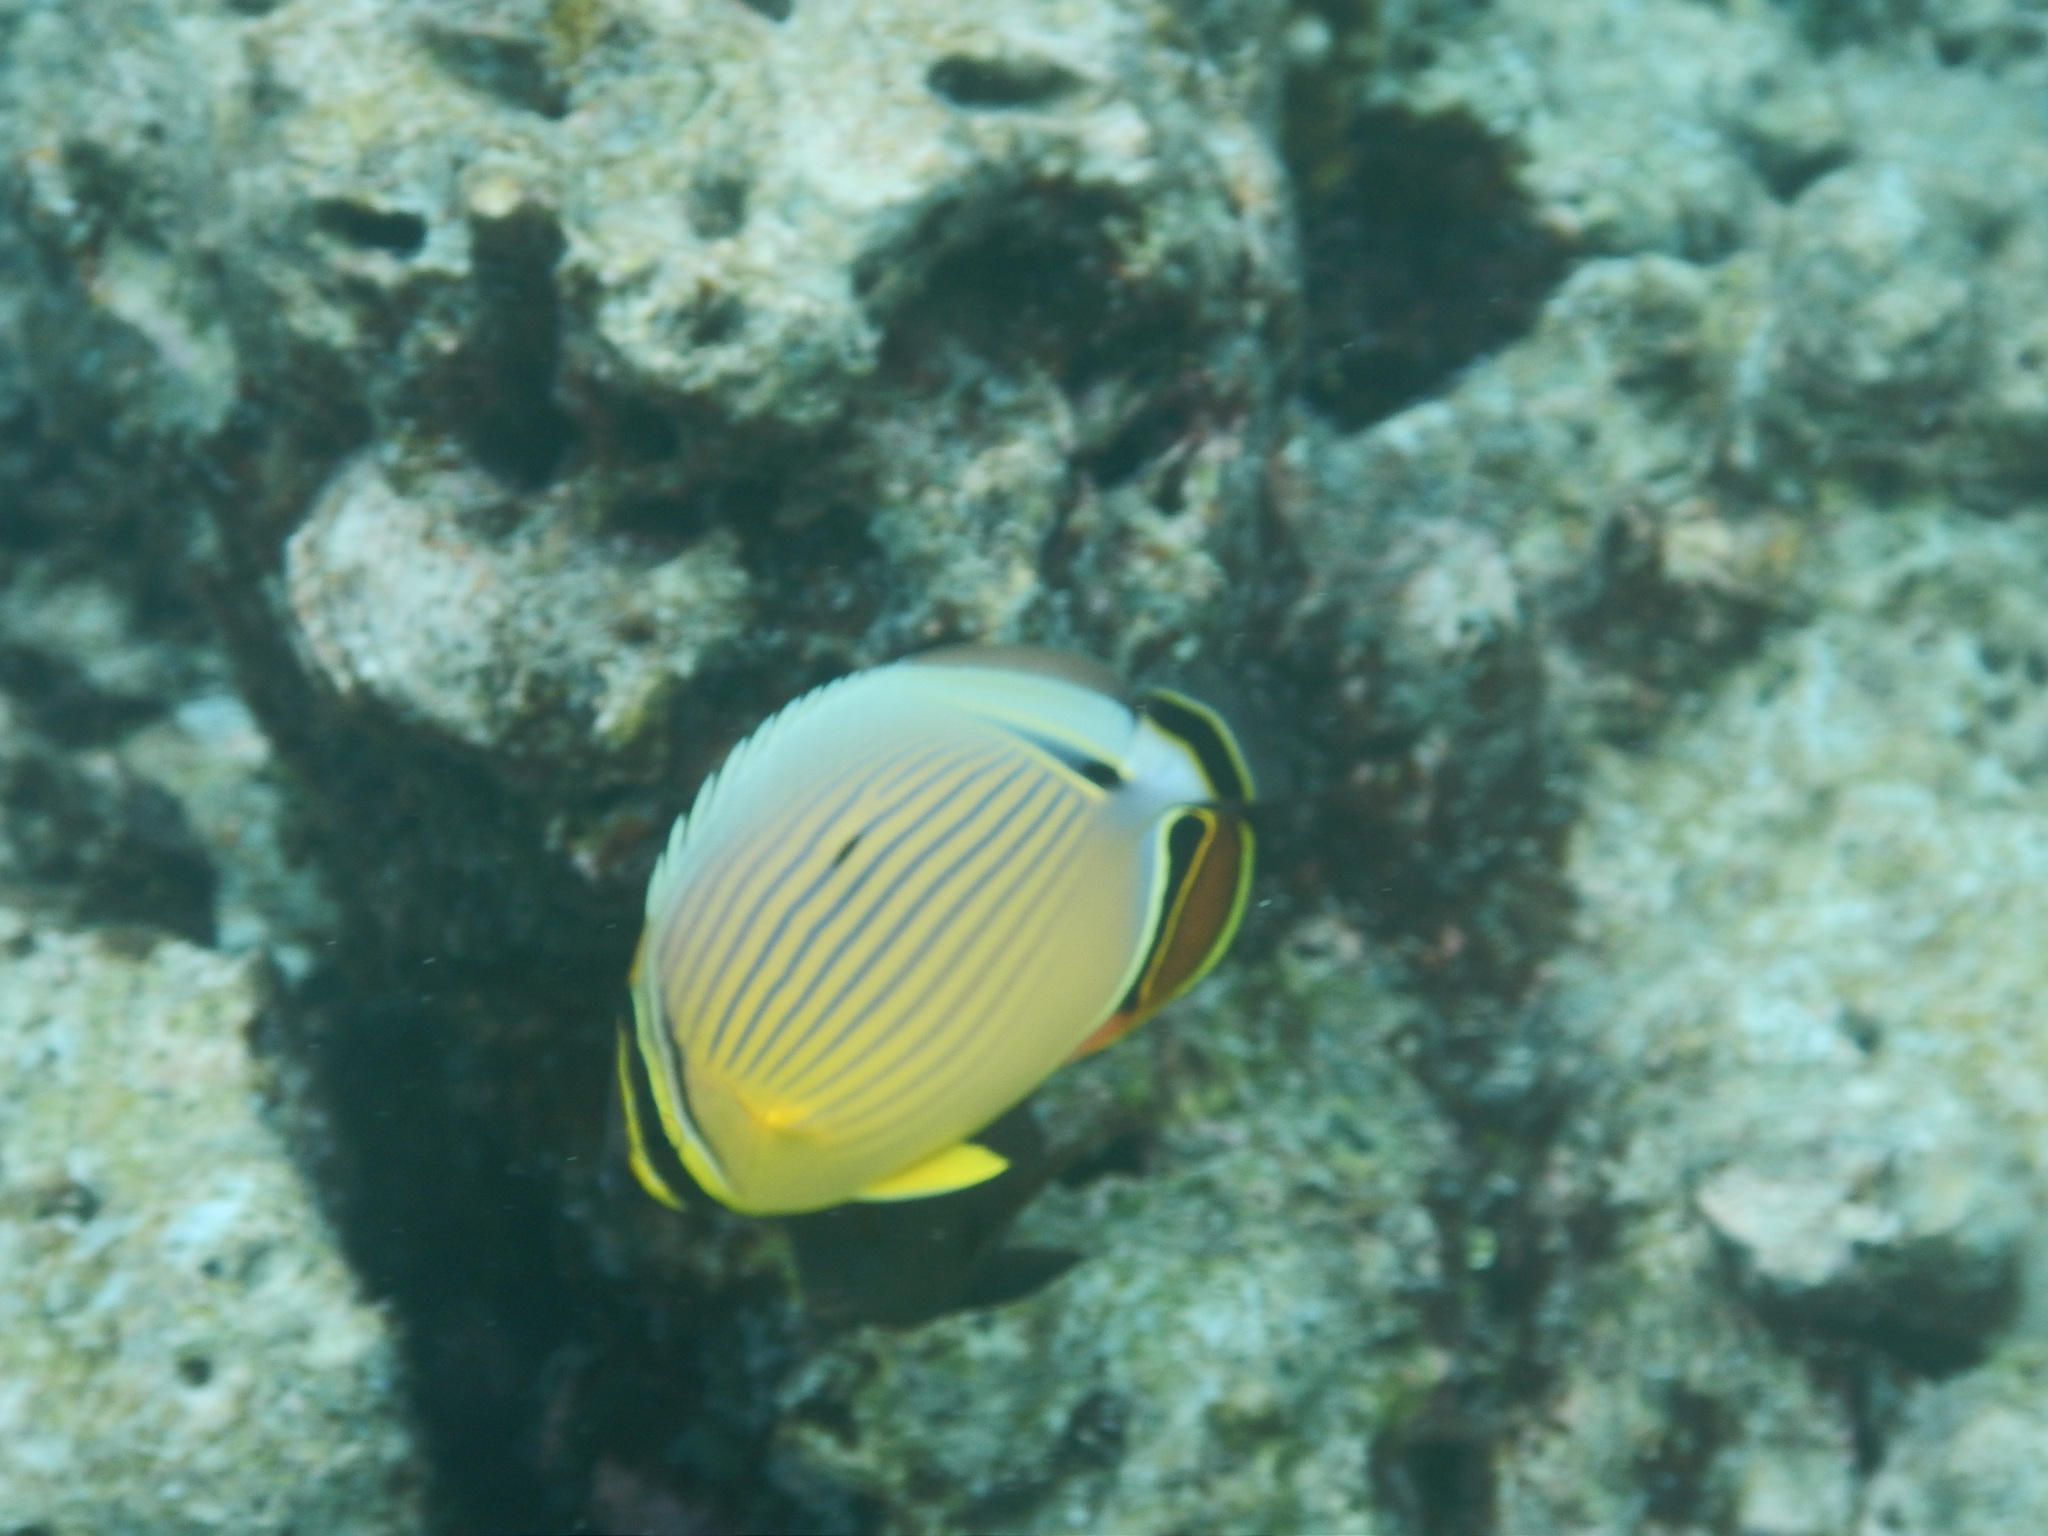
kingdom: Animalia
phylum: Chordata
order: Perciformes
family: Chaetodontidae
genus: Chaetodon
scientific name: Chaetodon lunulatus
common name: Redfin butterflyfish
